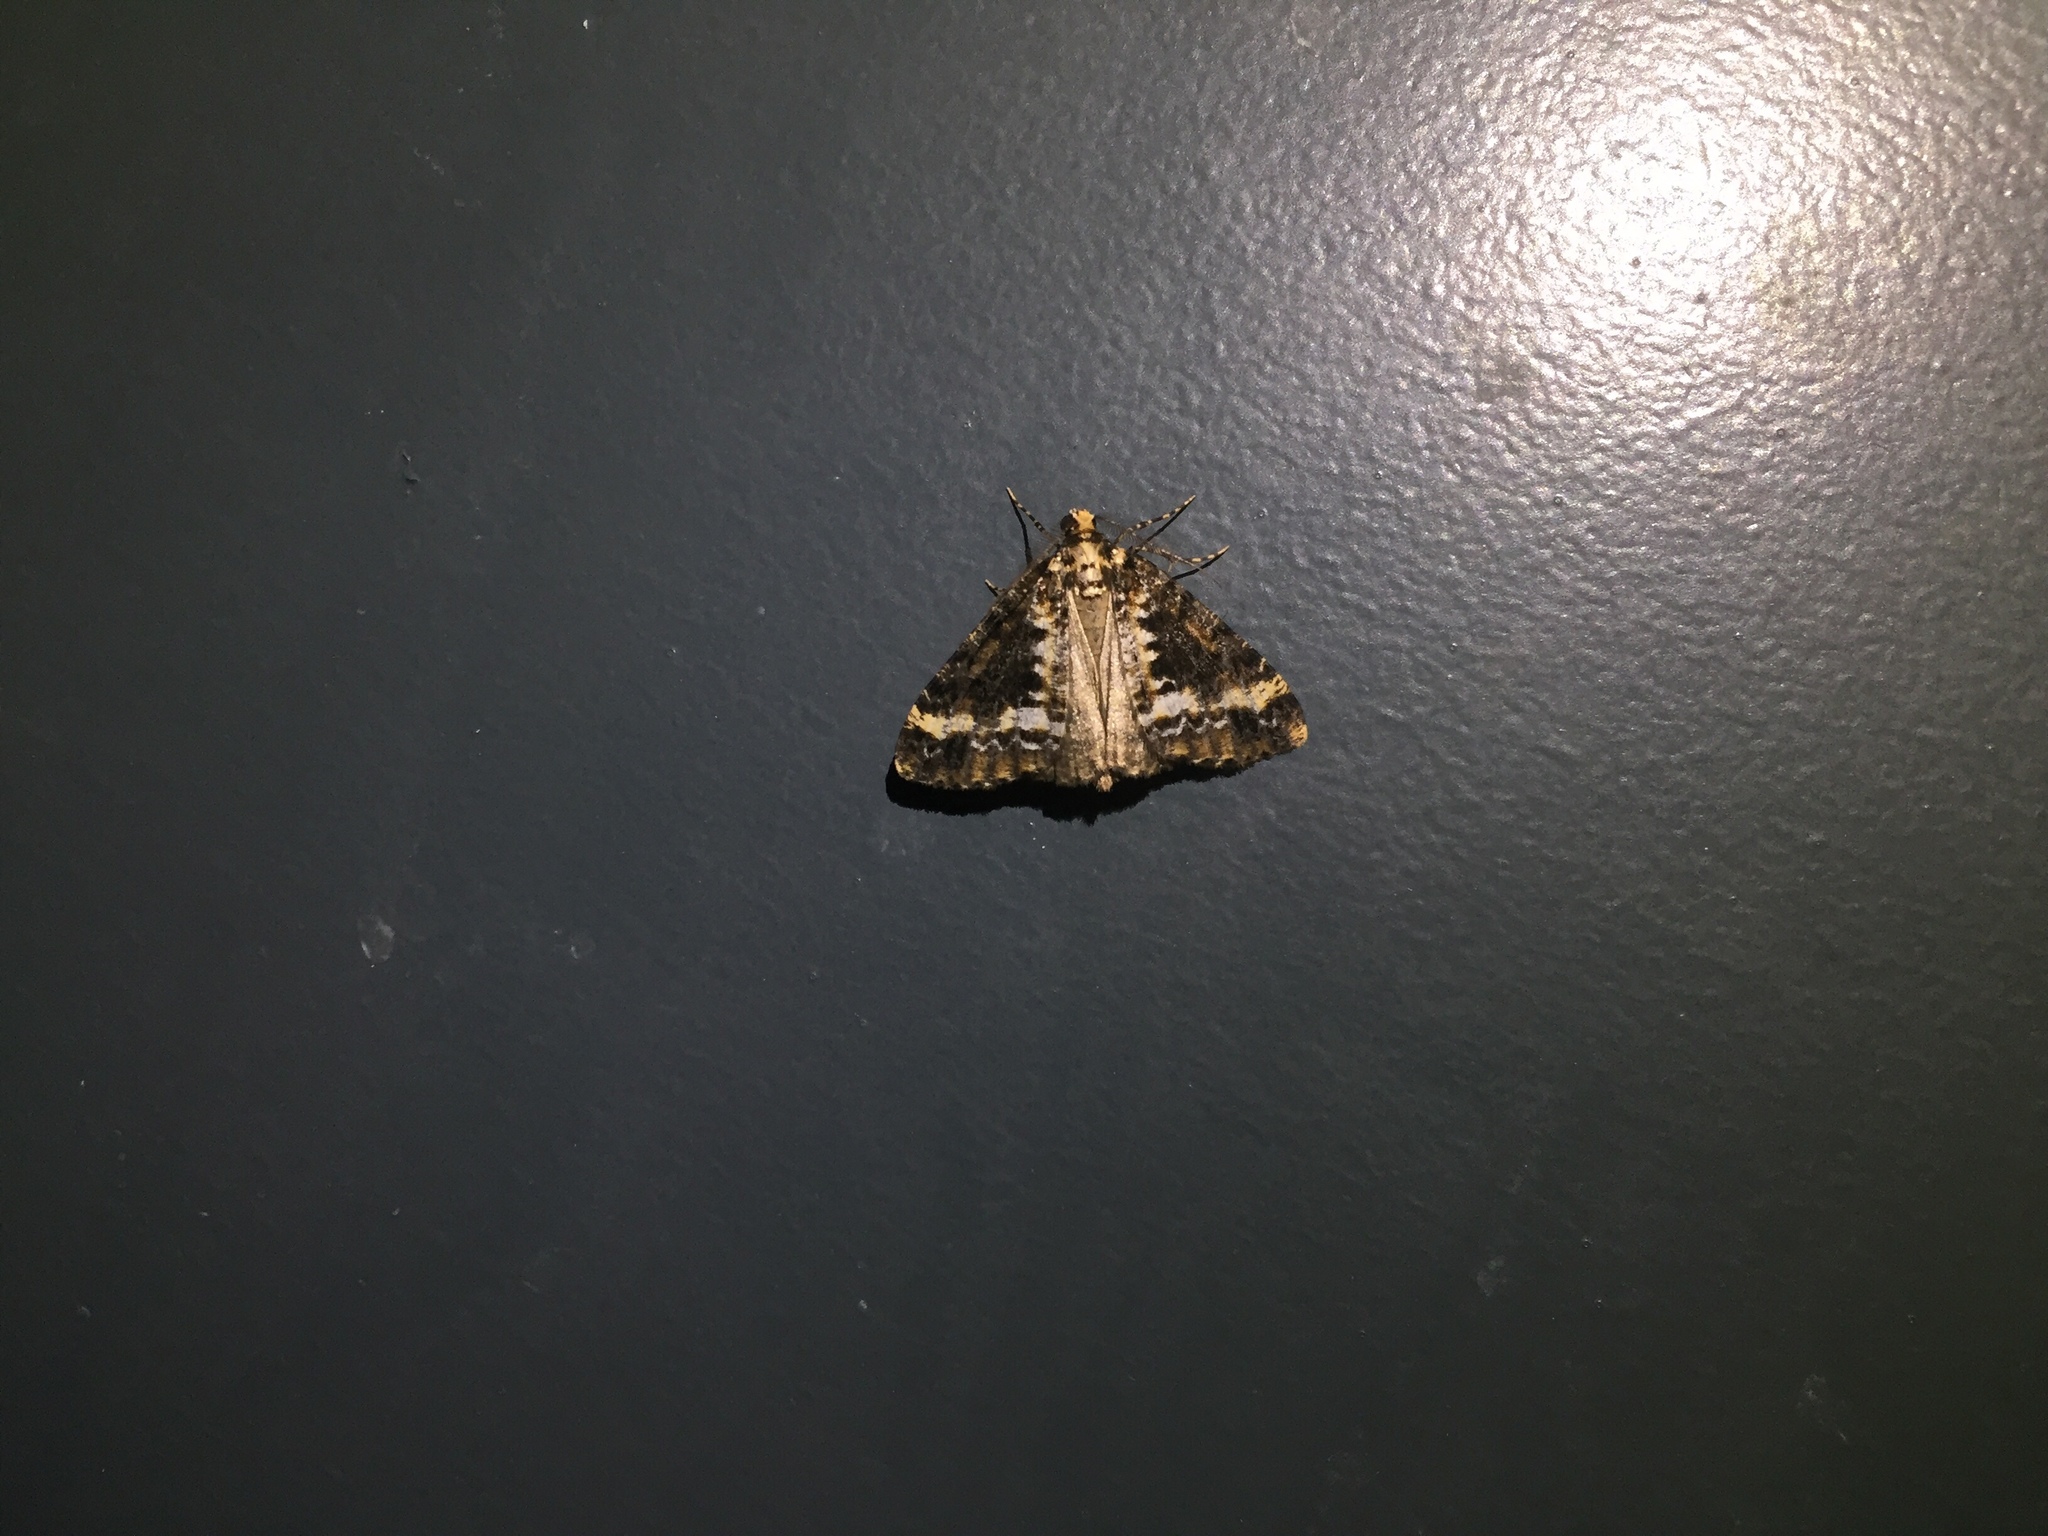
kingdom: Animalia
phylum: Arthropoda
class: Insecta
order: Lepidoptera
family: Geometridae
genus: Pseudocoremia
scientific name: Pseudocoremia leucelaea
